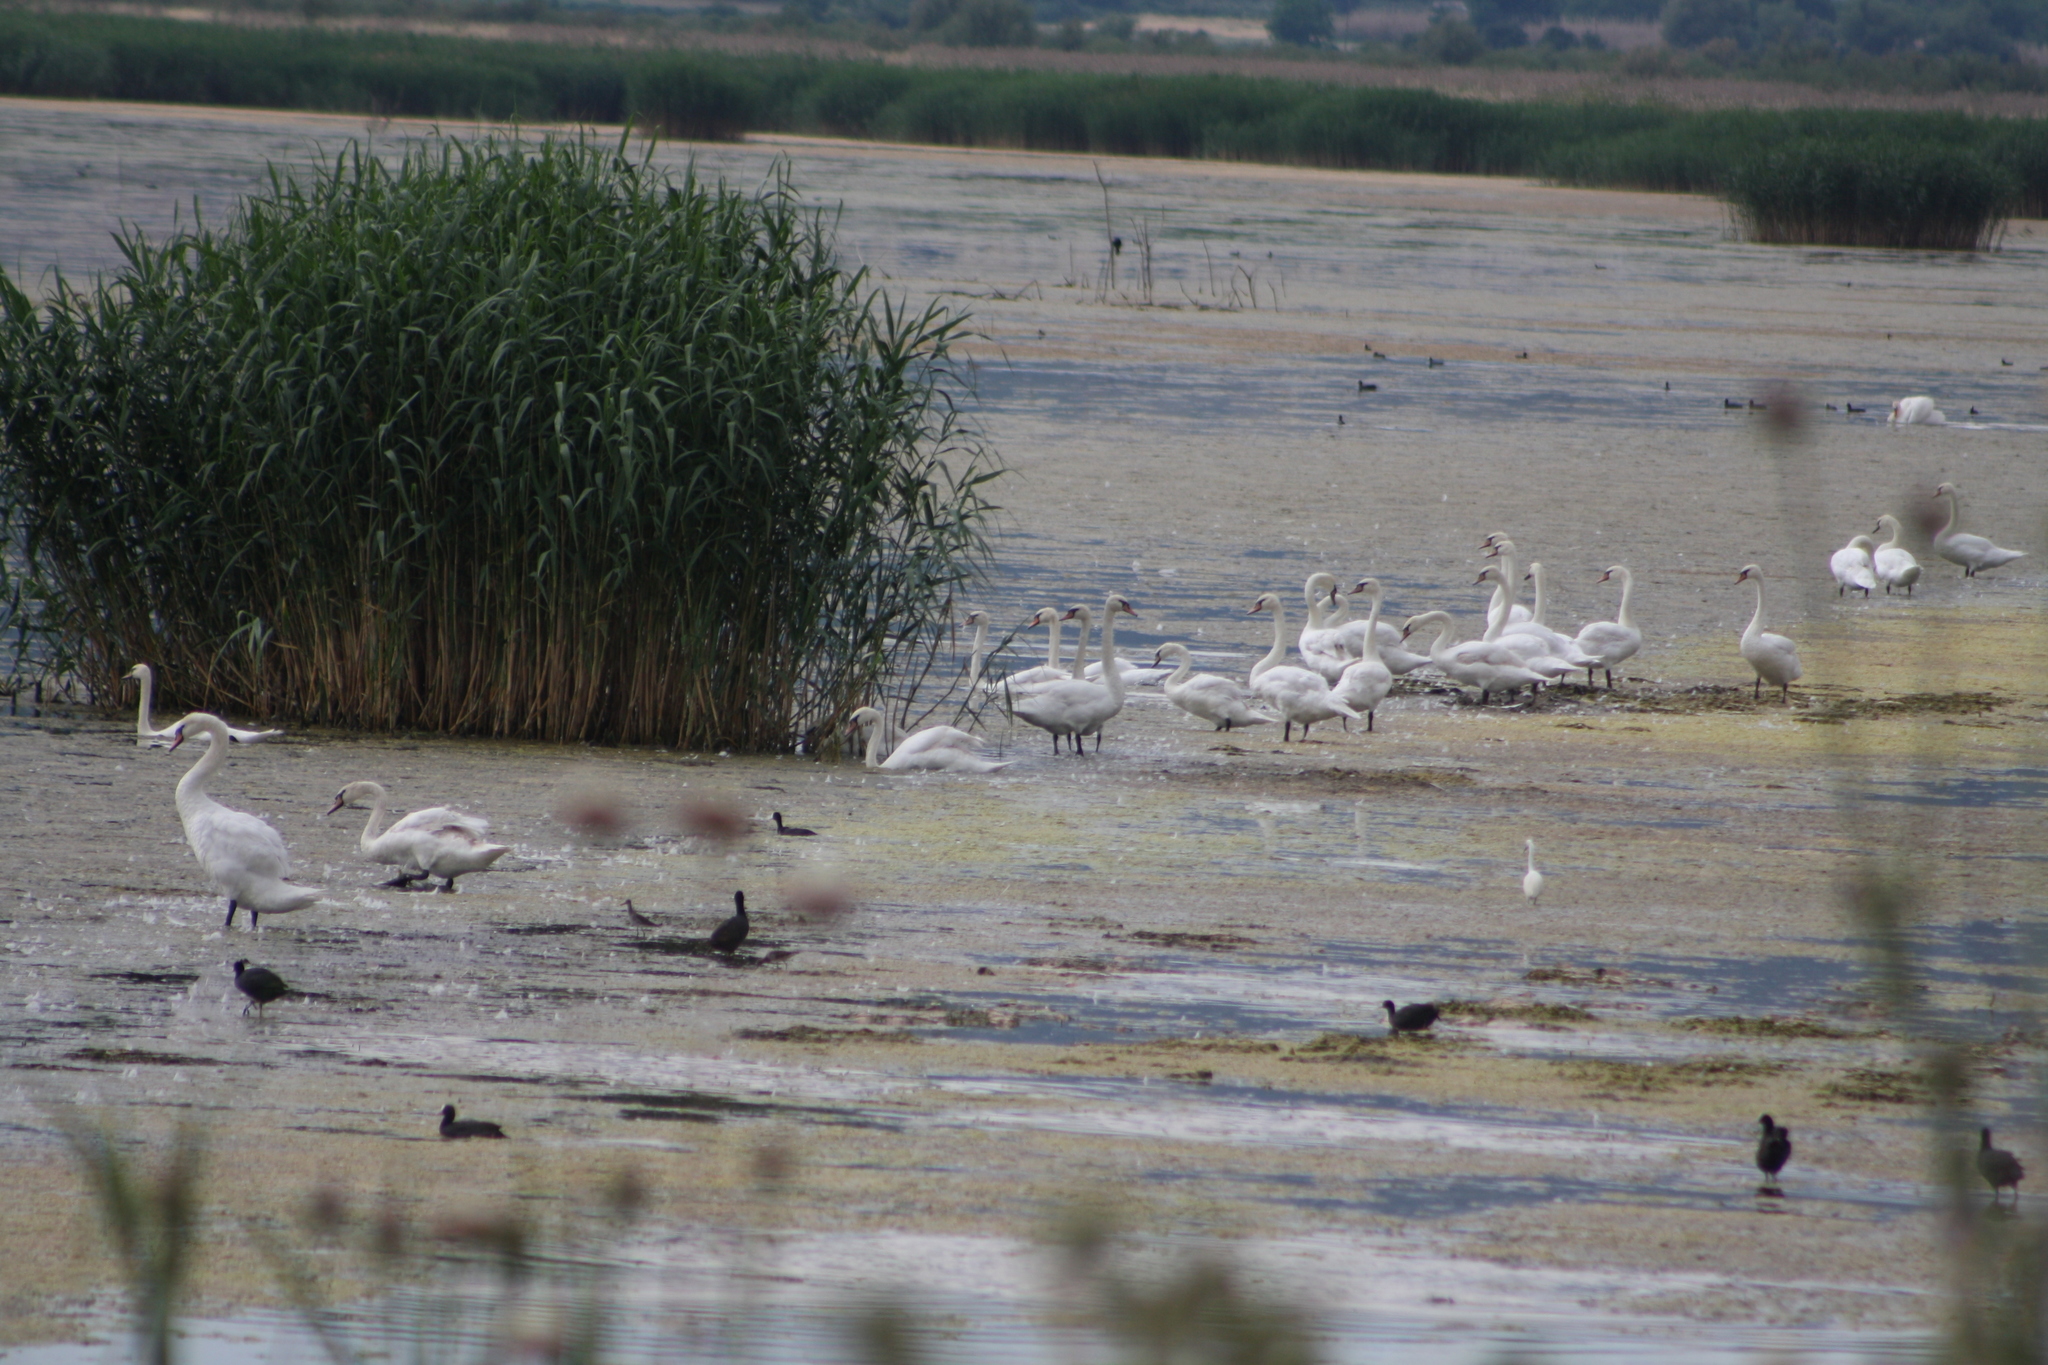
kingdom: Animalia
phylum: Chordata
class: Aves
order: Anseriformes
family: Anatidae
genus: Cygnus
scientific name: Cygnus olor
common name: Mute swan
